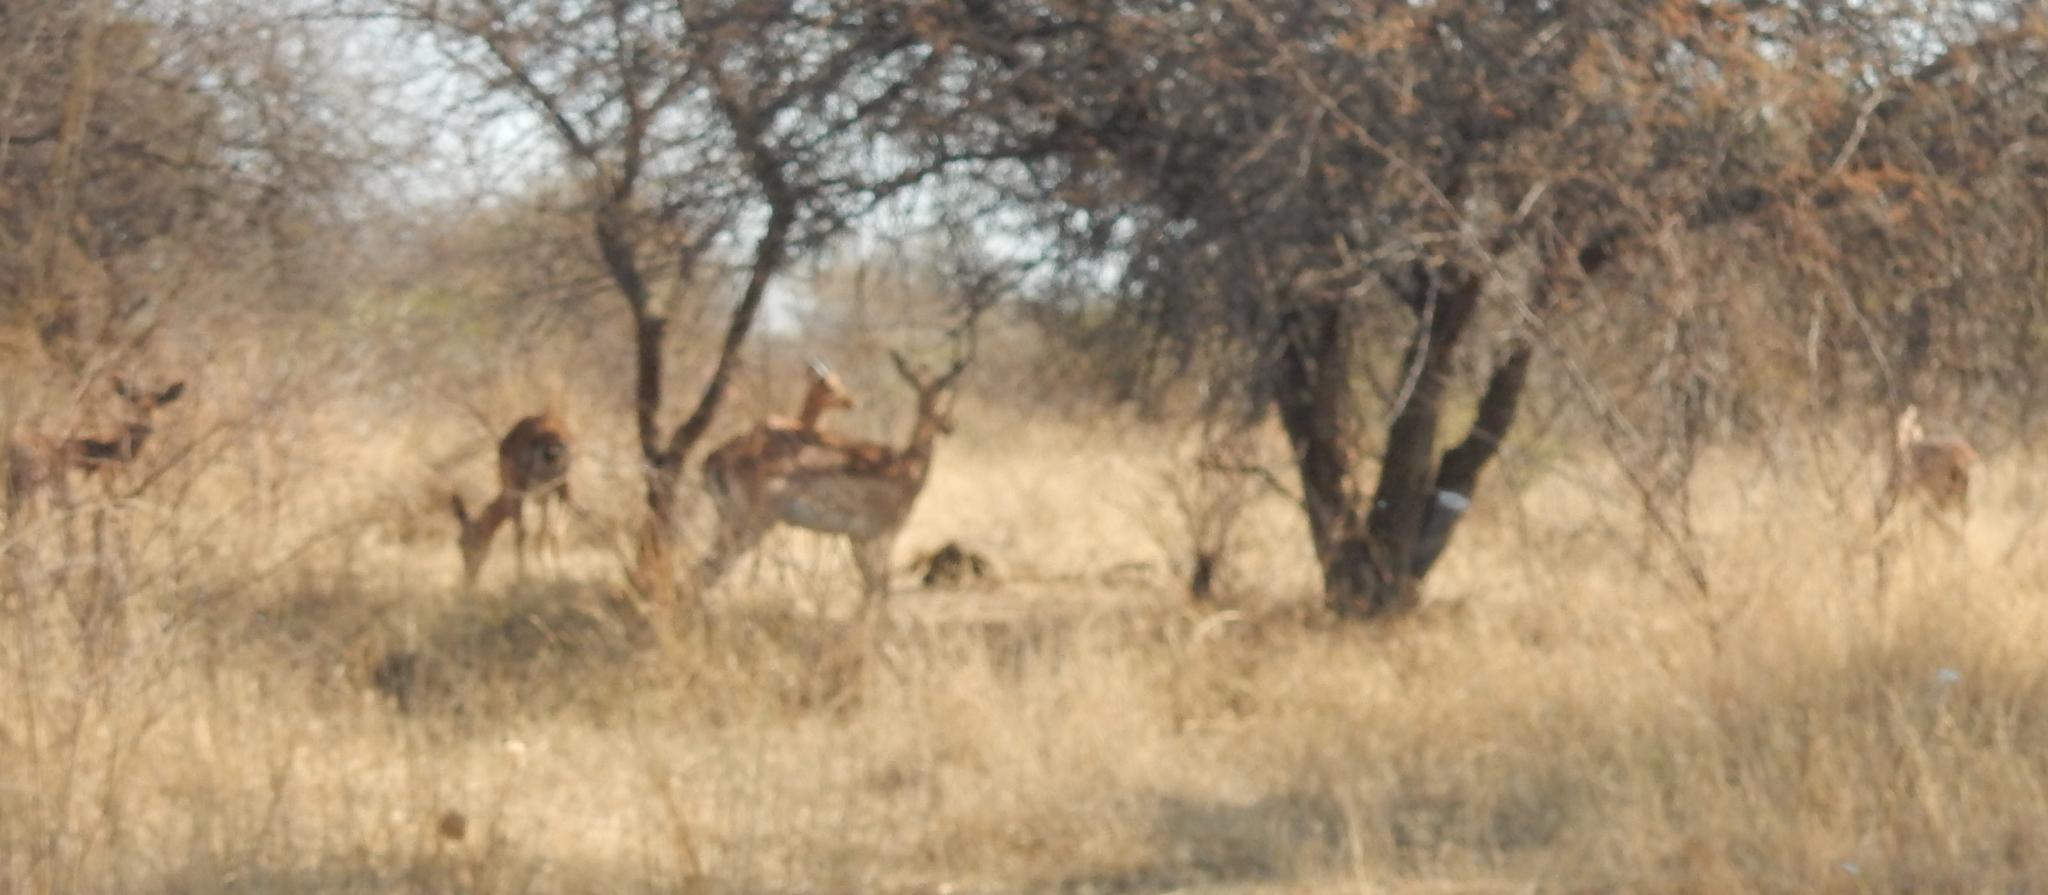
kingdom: Animalia
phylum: Chordata
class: Mammalia
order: Artiodactyla
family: Bovidae
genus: Aepyceros
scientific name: Aepyceros melampus
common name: Impala
